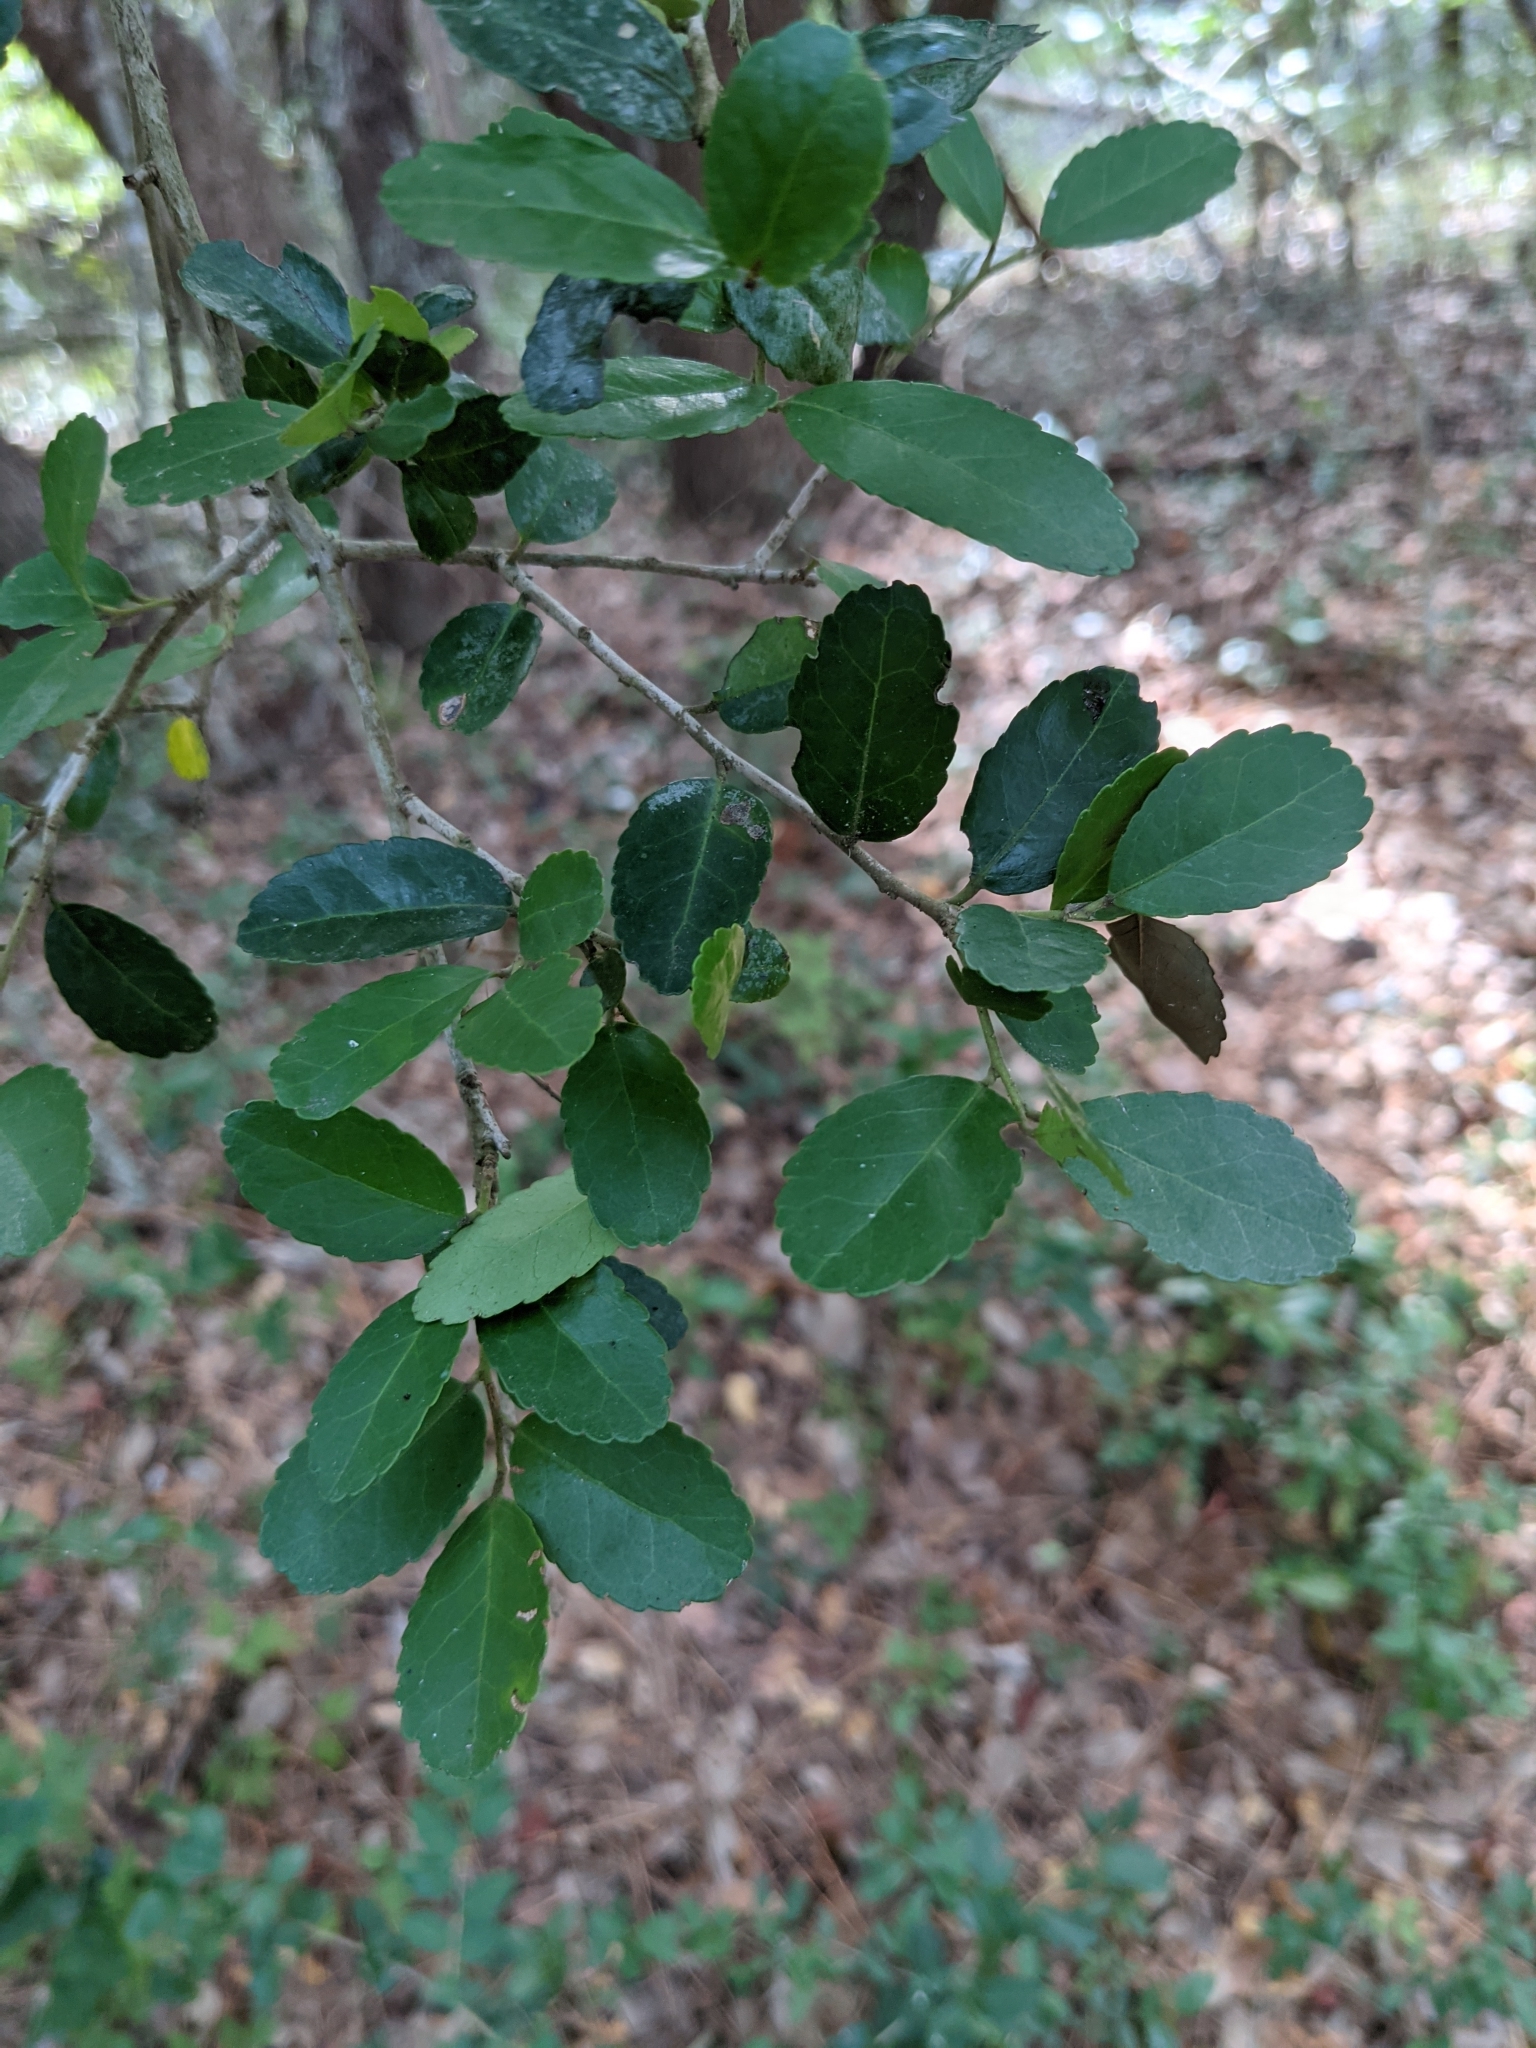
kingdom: Plantae
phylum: Tracheophyta
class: Magnoliopsida
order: Aquifoliales
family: Aquifoliaceae
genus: Ilex
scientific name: Ilex vomitoria
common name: Yaupon holly
